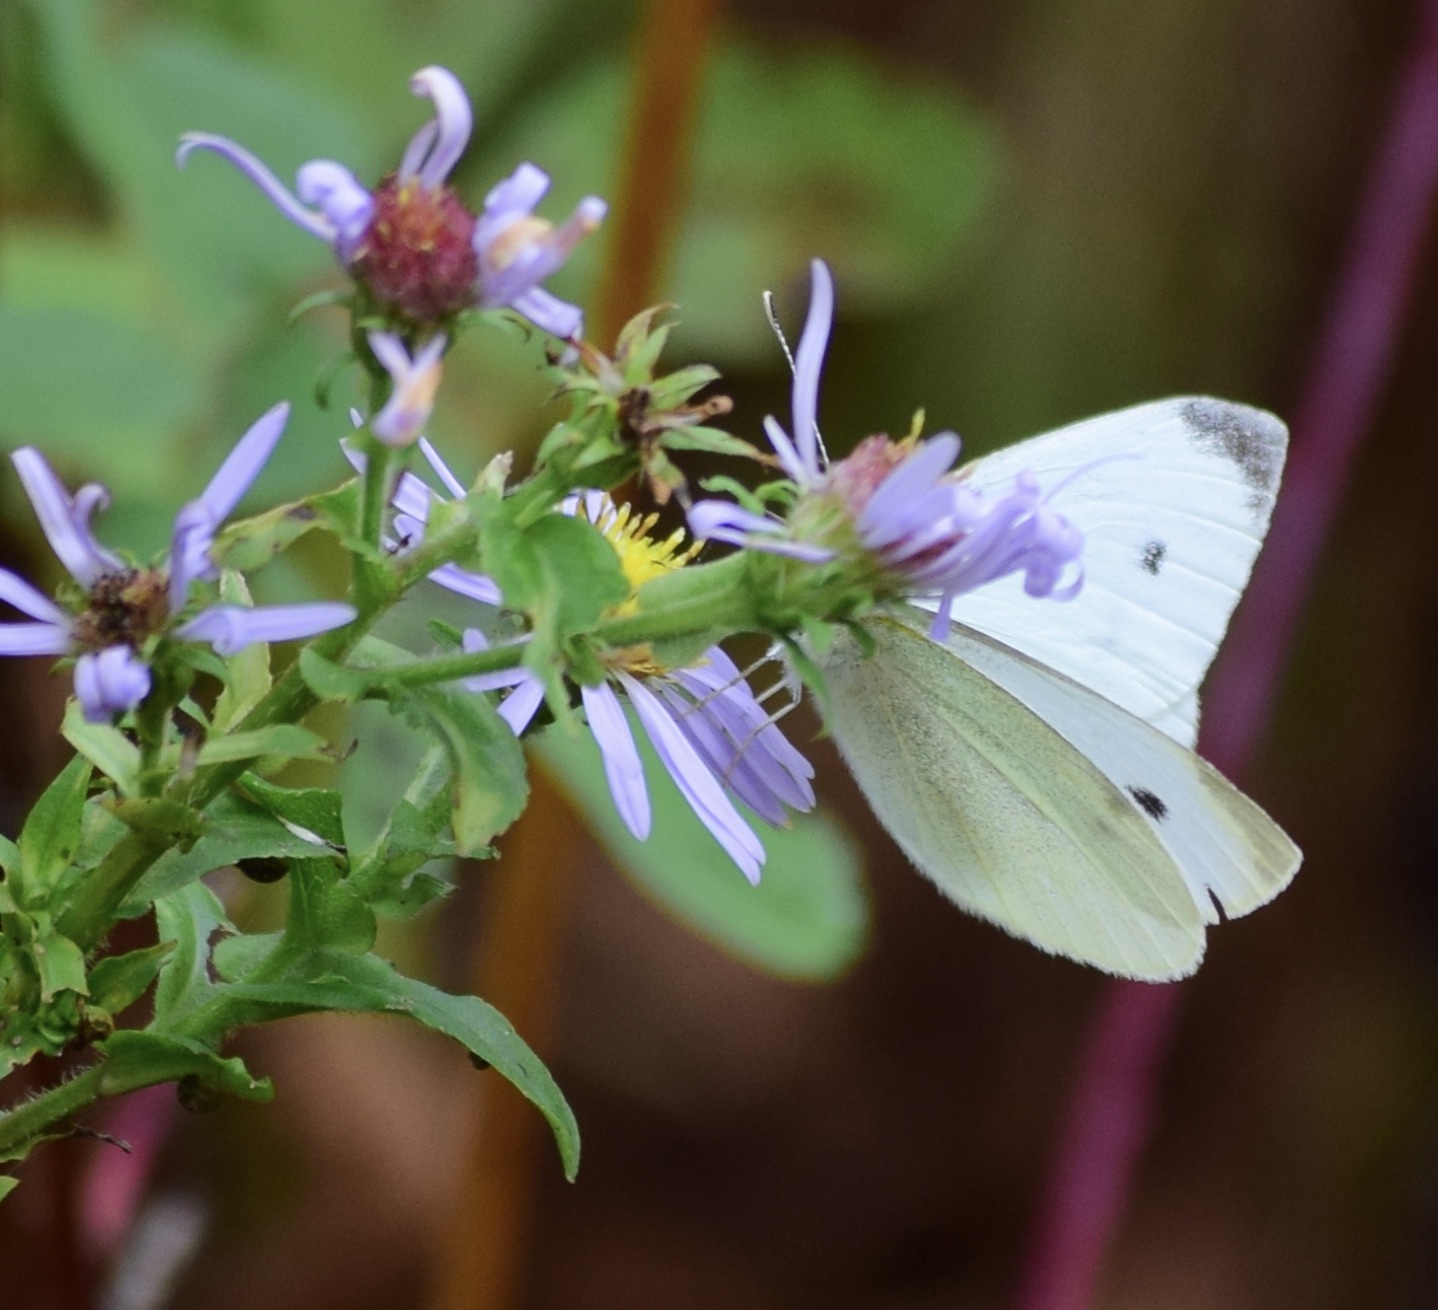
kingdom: Animalia
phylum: Arthropoda
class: Insecta
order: Lepidoptera
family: Pieridae
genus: Pieris
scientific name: Pieris rapae
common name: Small white
